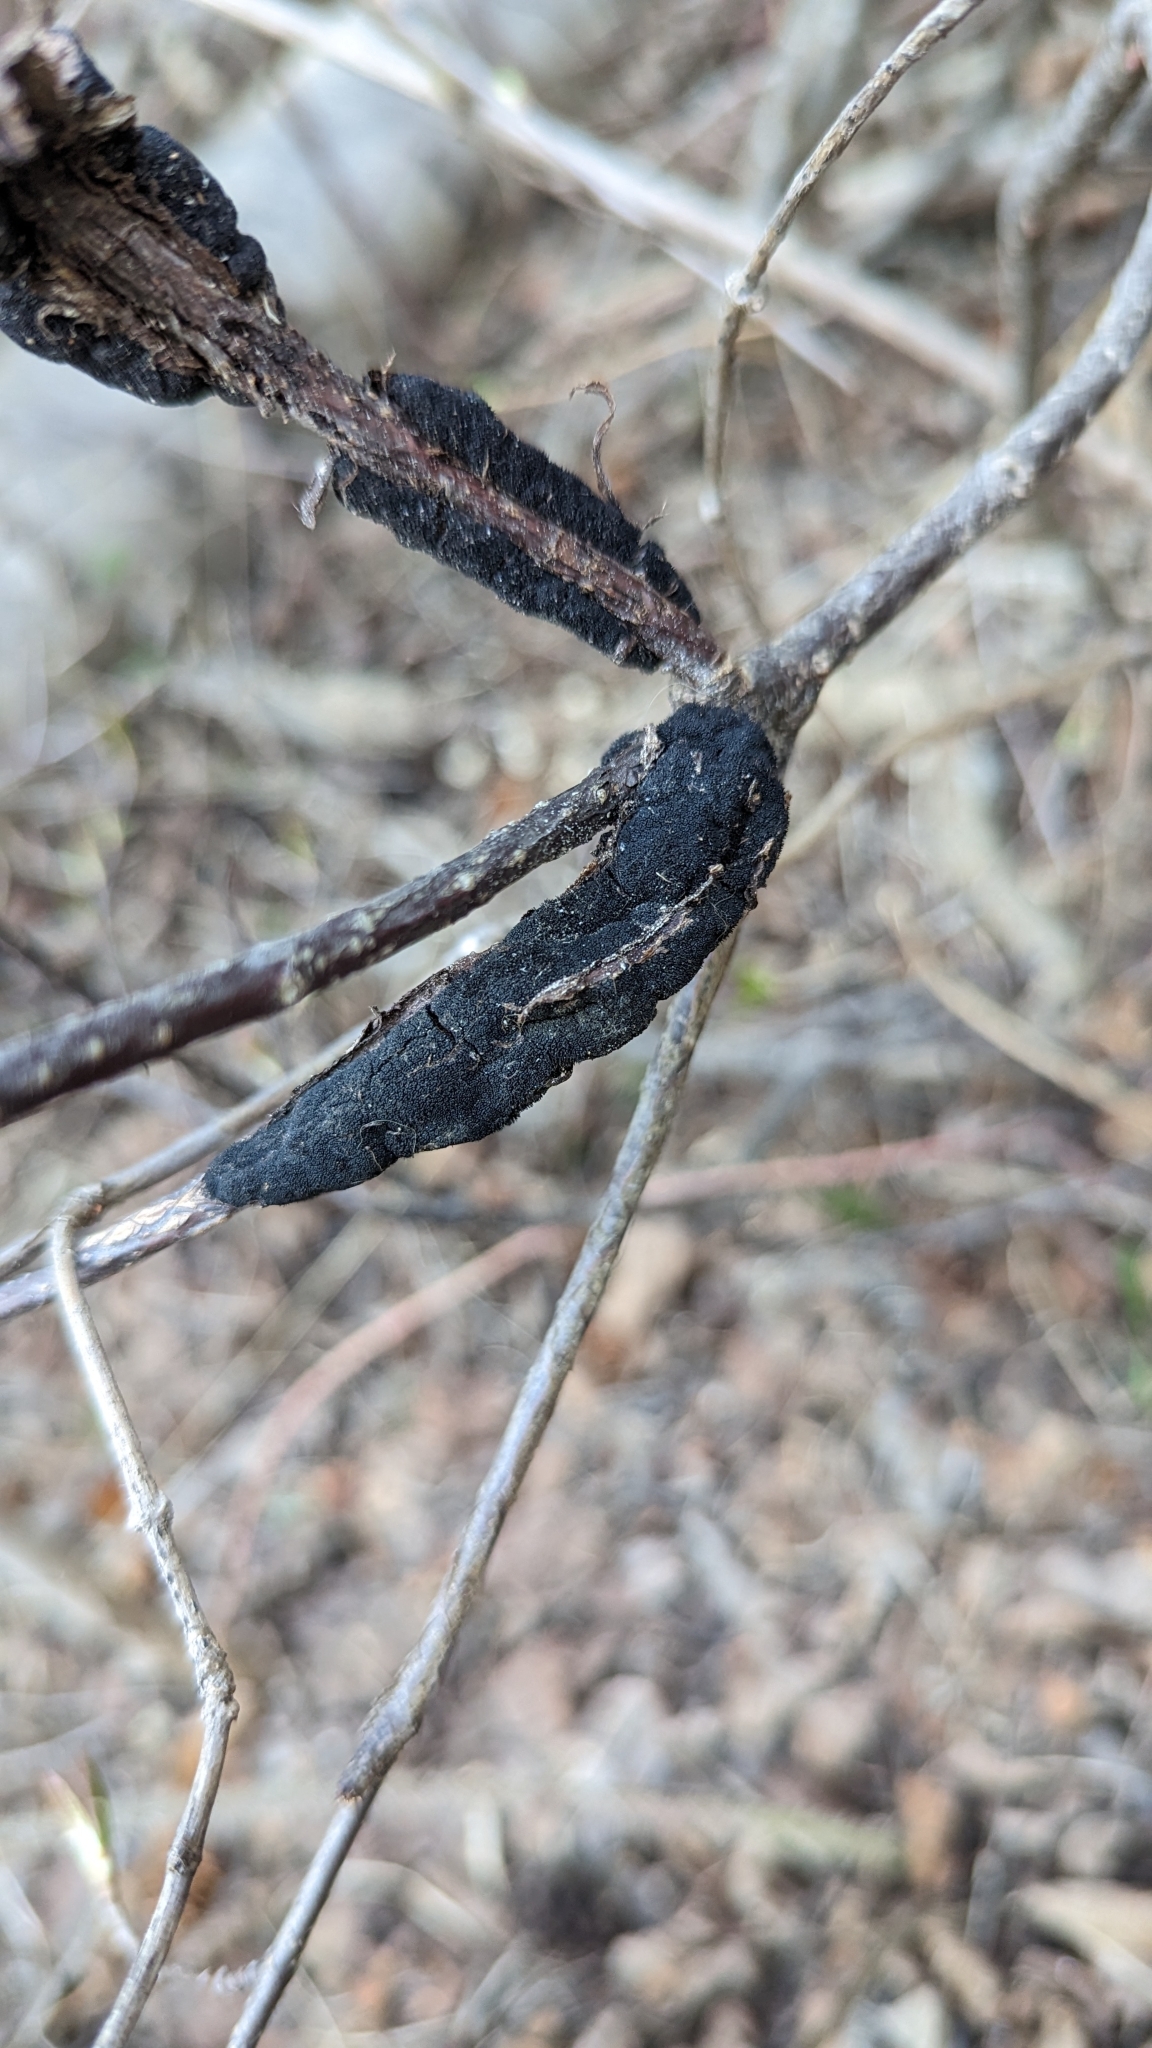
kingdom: Fungi
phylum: Ascomycota
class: Dothideomycetes
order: Venturiales
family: Venturiaceae
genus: Apiosporina
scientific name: Apiosporina morbosa
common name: Black knot
